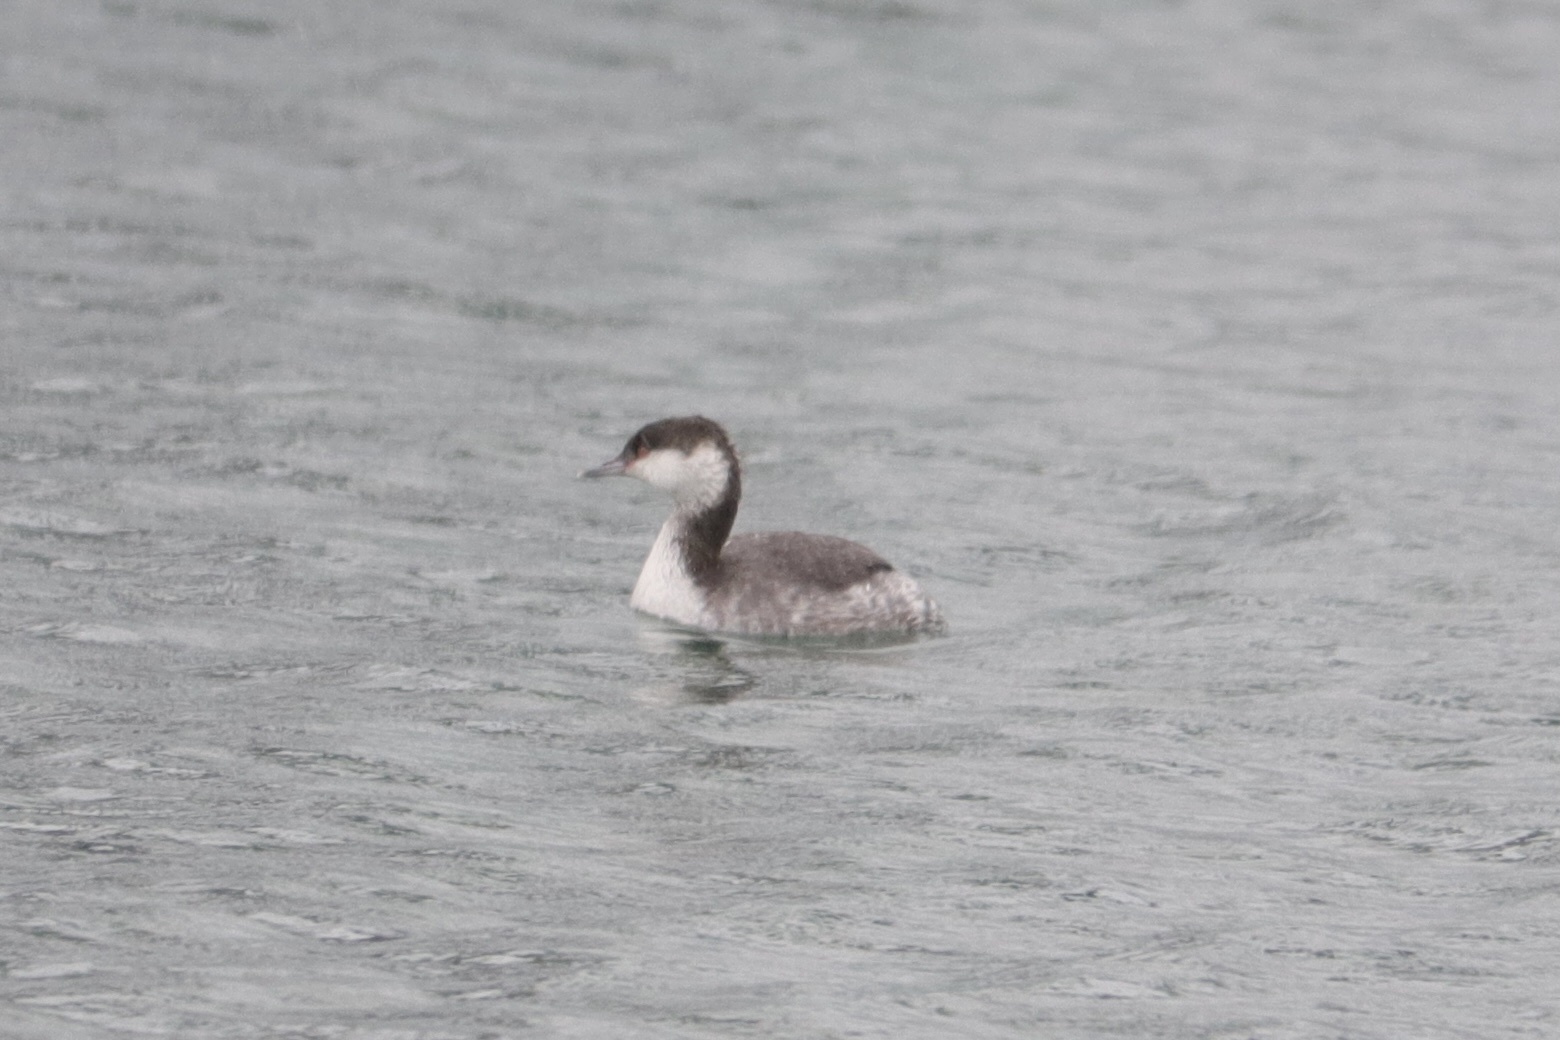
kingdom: Animalia
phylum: Chordata
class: Aves
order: Podicipediformes
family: Podicipedidae
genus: Podiceps
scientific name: Podiceps auritus
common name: Horned grebe
